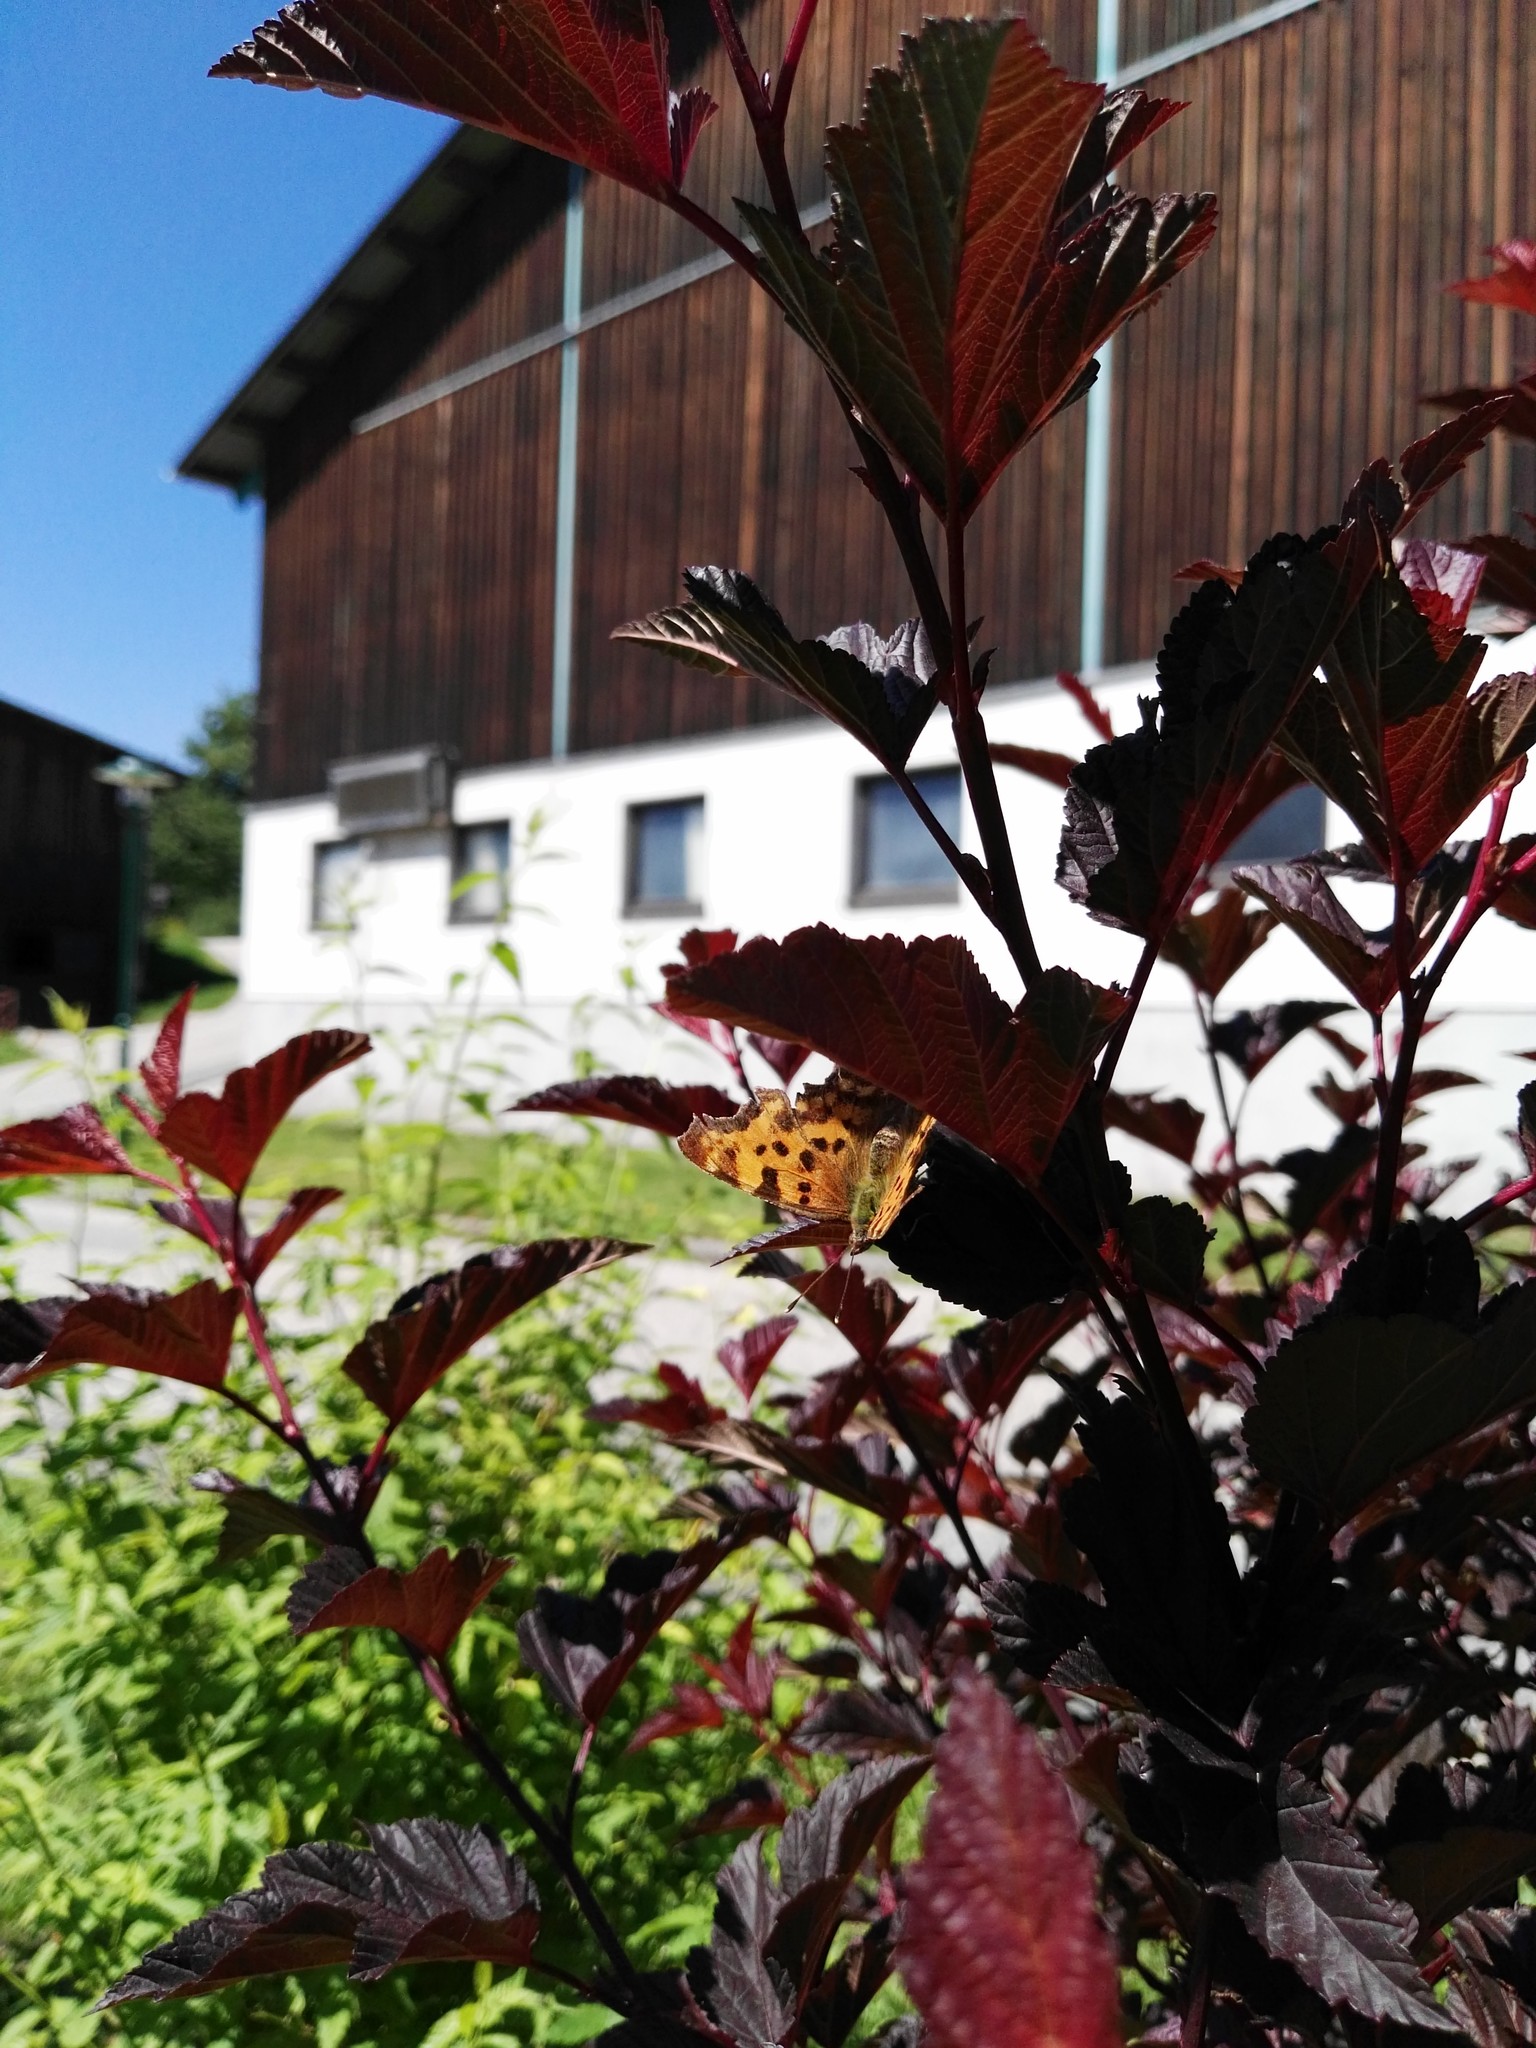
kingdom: Animalia
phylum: Arthropoda
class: Insecta
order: Lepidoptera
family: Nymphalidae
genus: Polygonia
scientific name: Polygonia c-album
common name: Comma
